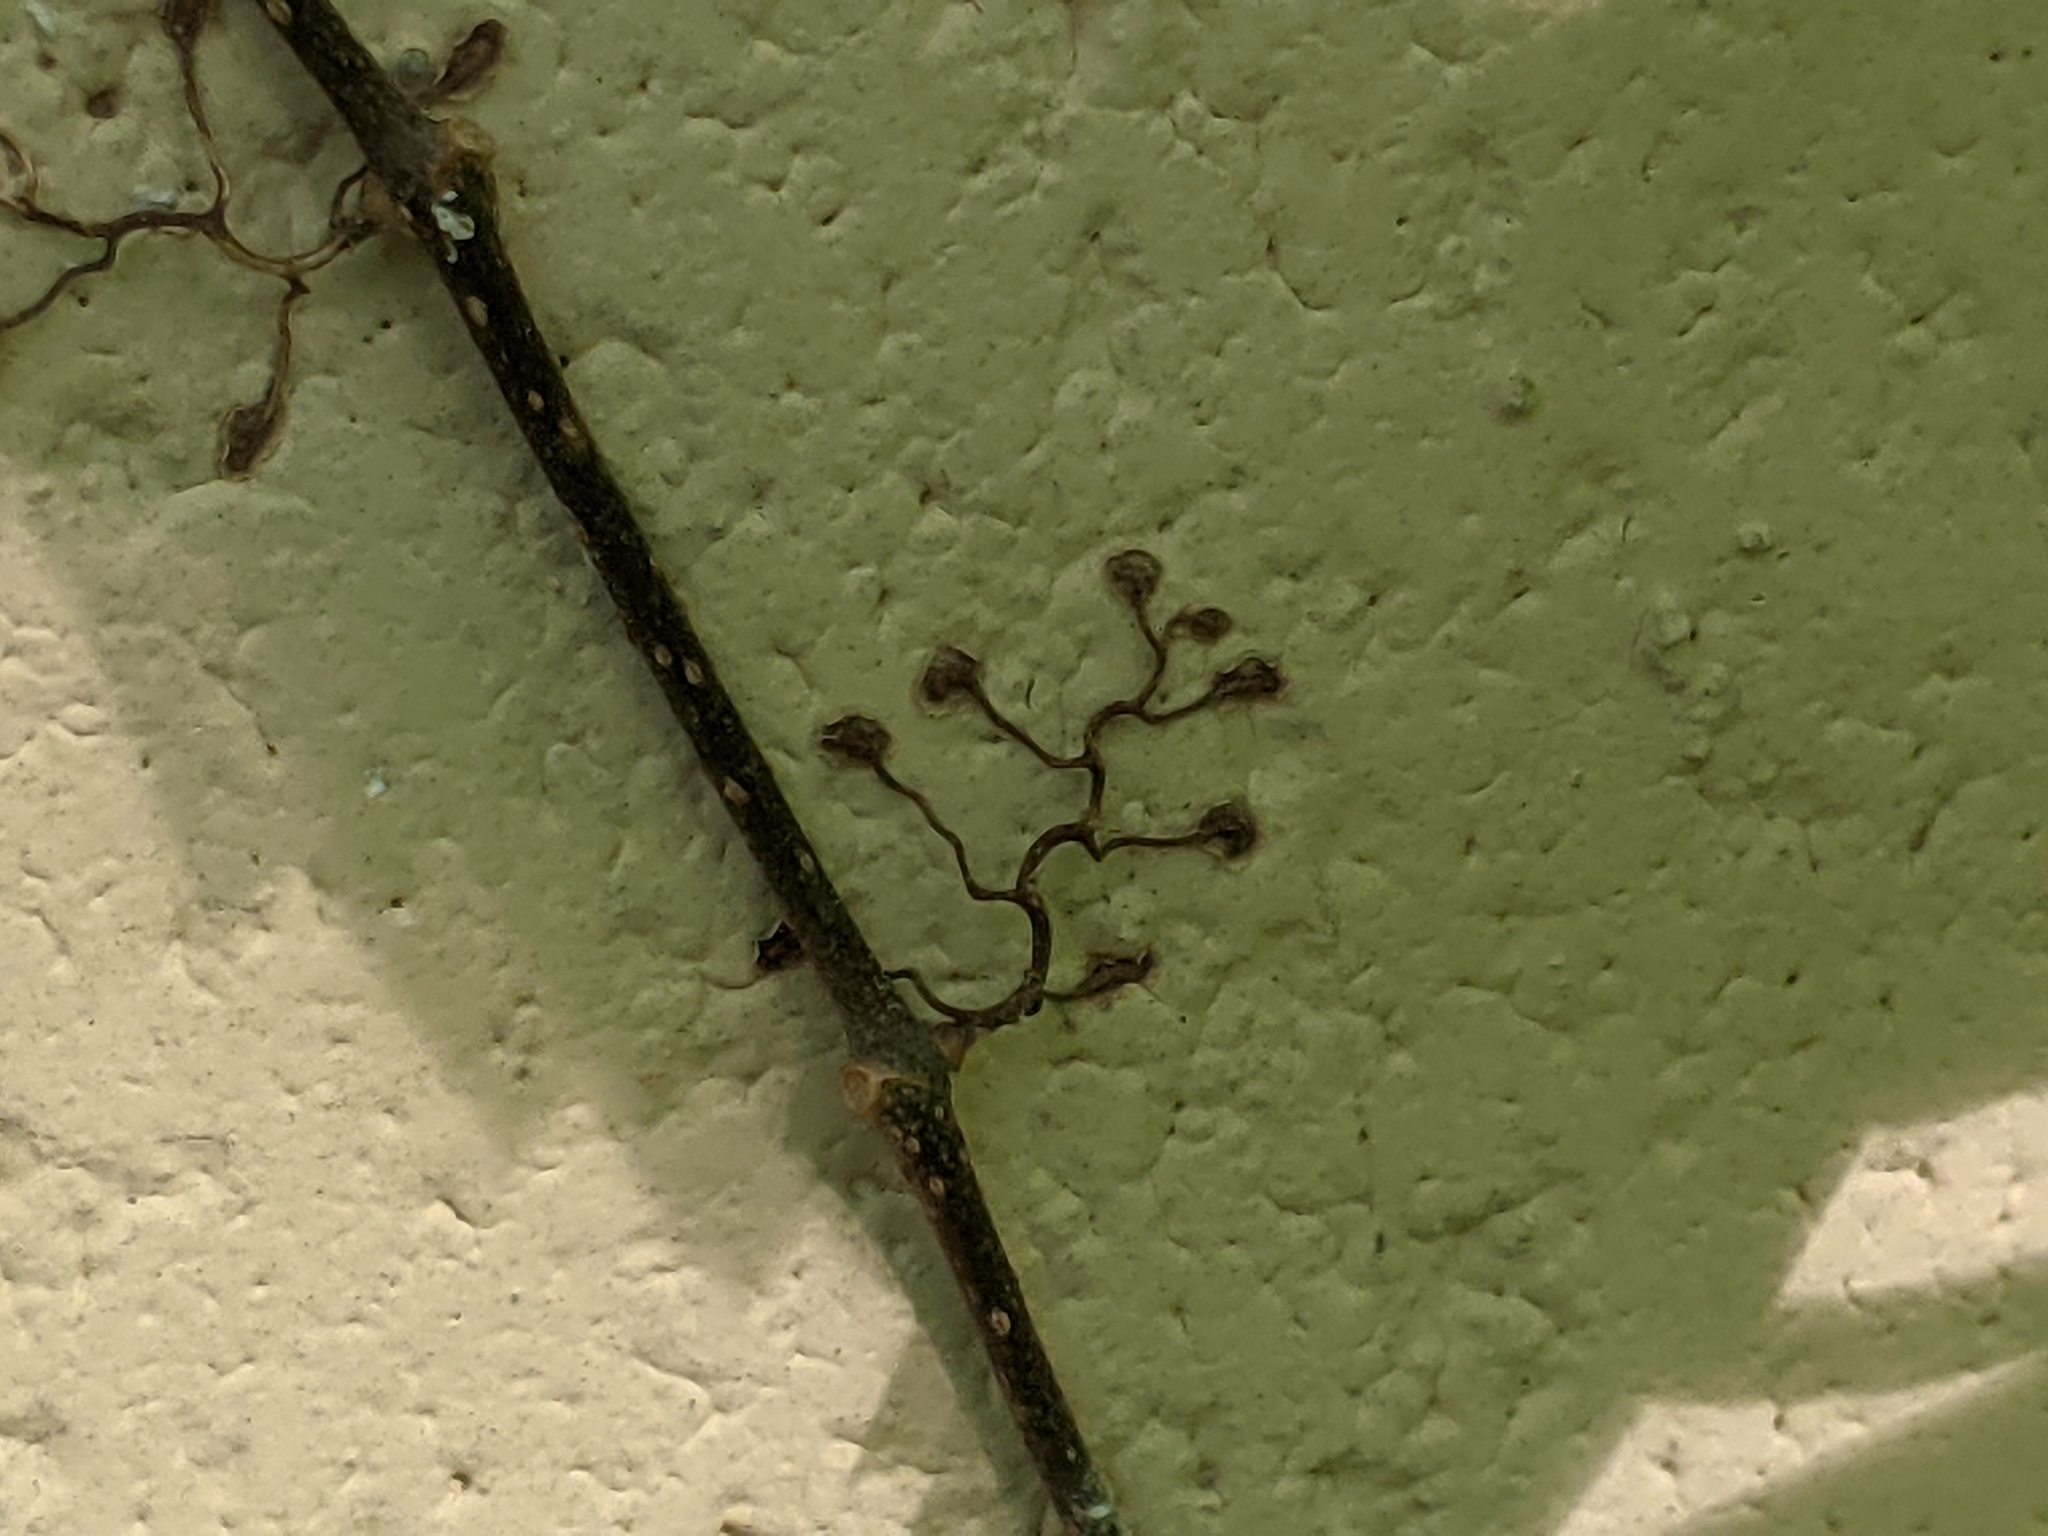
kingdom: Plantae
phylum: Tracheophyta
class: Magnoliopsida
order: Vitales
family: Vitaceae
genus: Parthenocissus
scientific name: Parthenocissus quinquefolia
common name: Virginia-creeper
